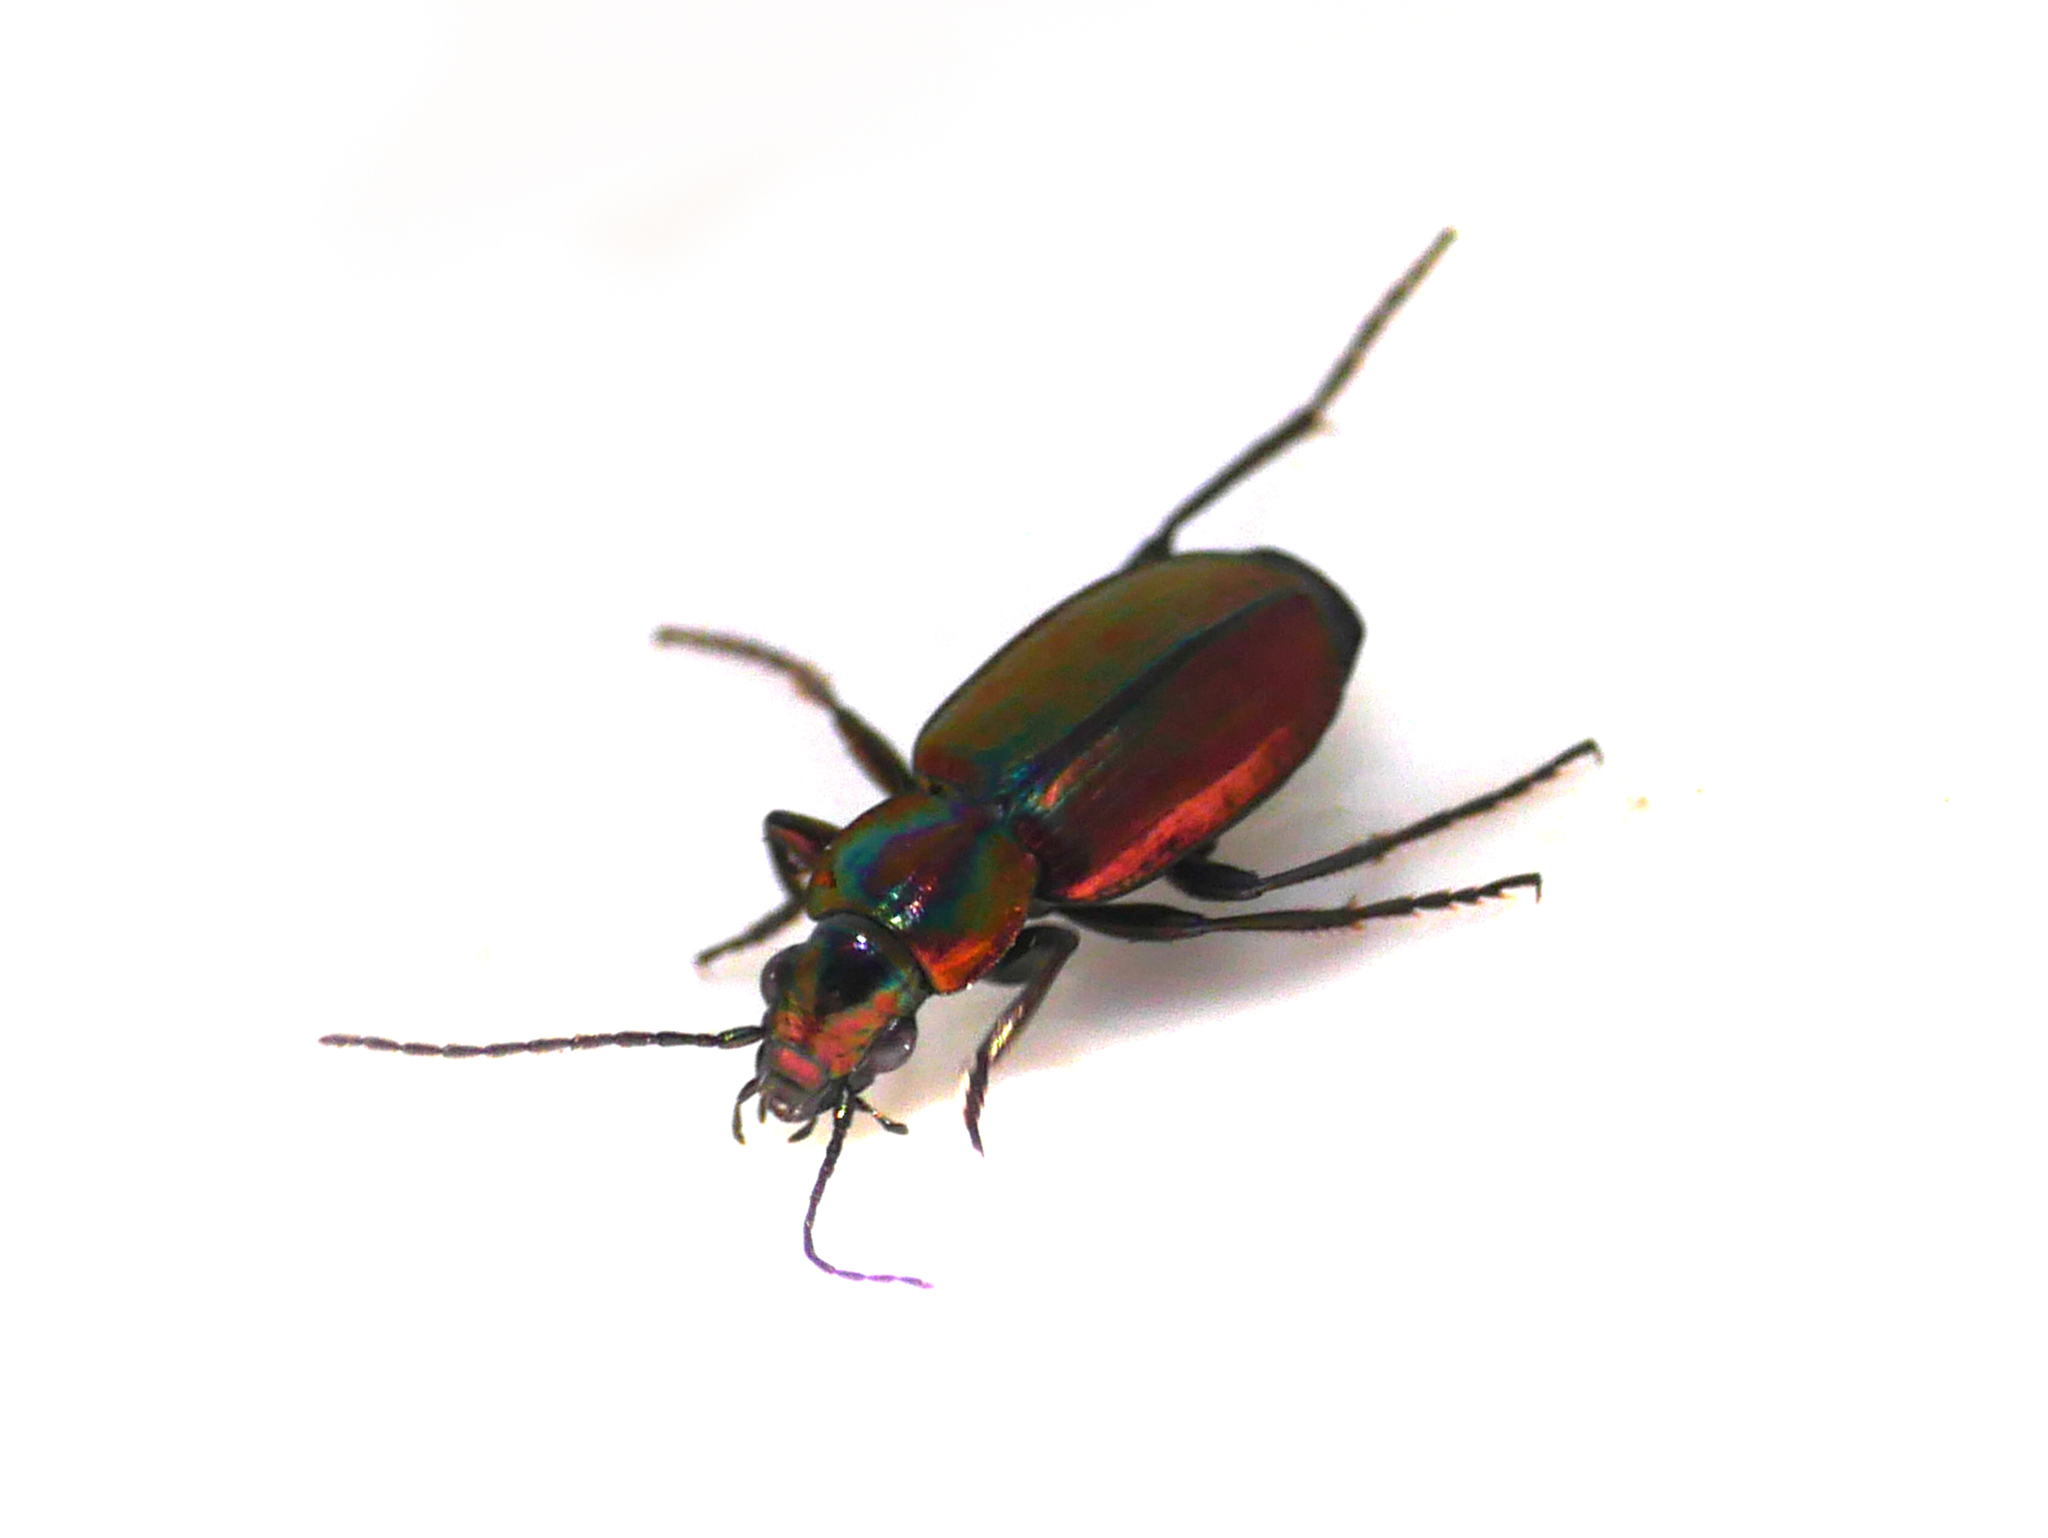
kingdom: Animalia
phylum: Arthropoda
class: Insecta
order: Coleoptera
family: Carabidae
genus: Agonum
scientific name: Agonum ericeti
